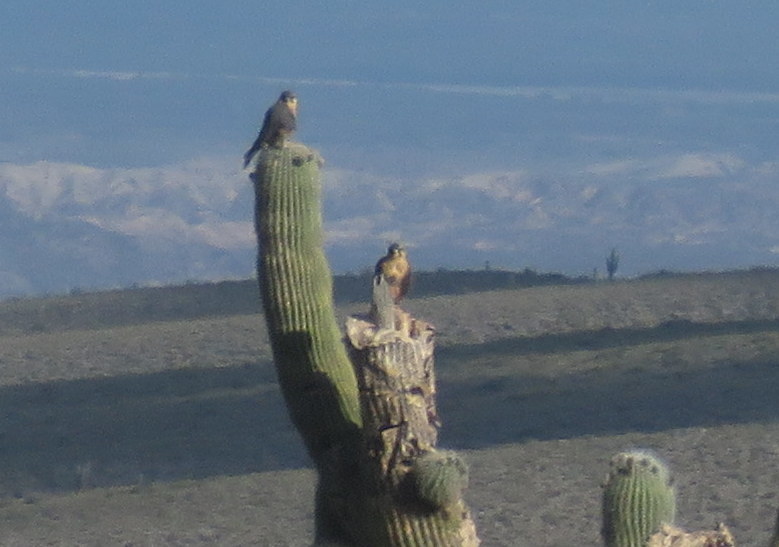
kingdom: Animalia
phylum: Chordata
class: Aves
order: Falconiformes
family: Falconidae
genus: Falco
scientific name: Falco femoralis
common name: Aplomado falcon
